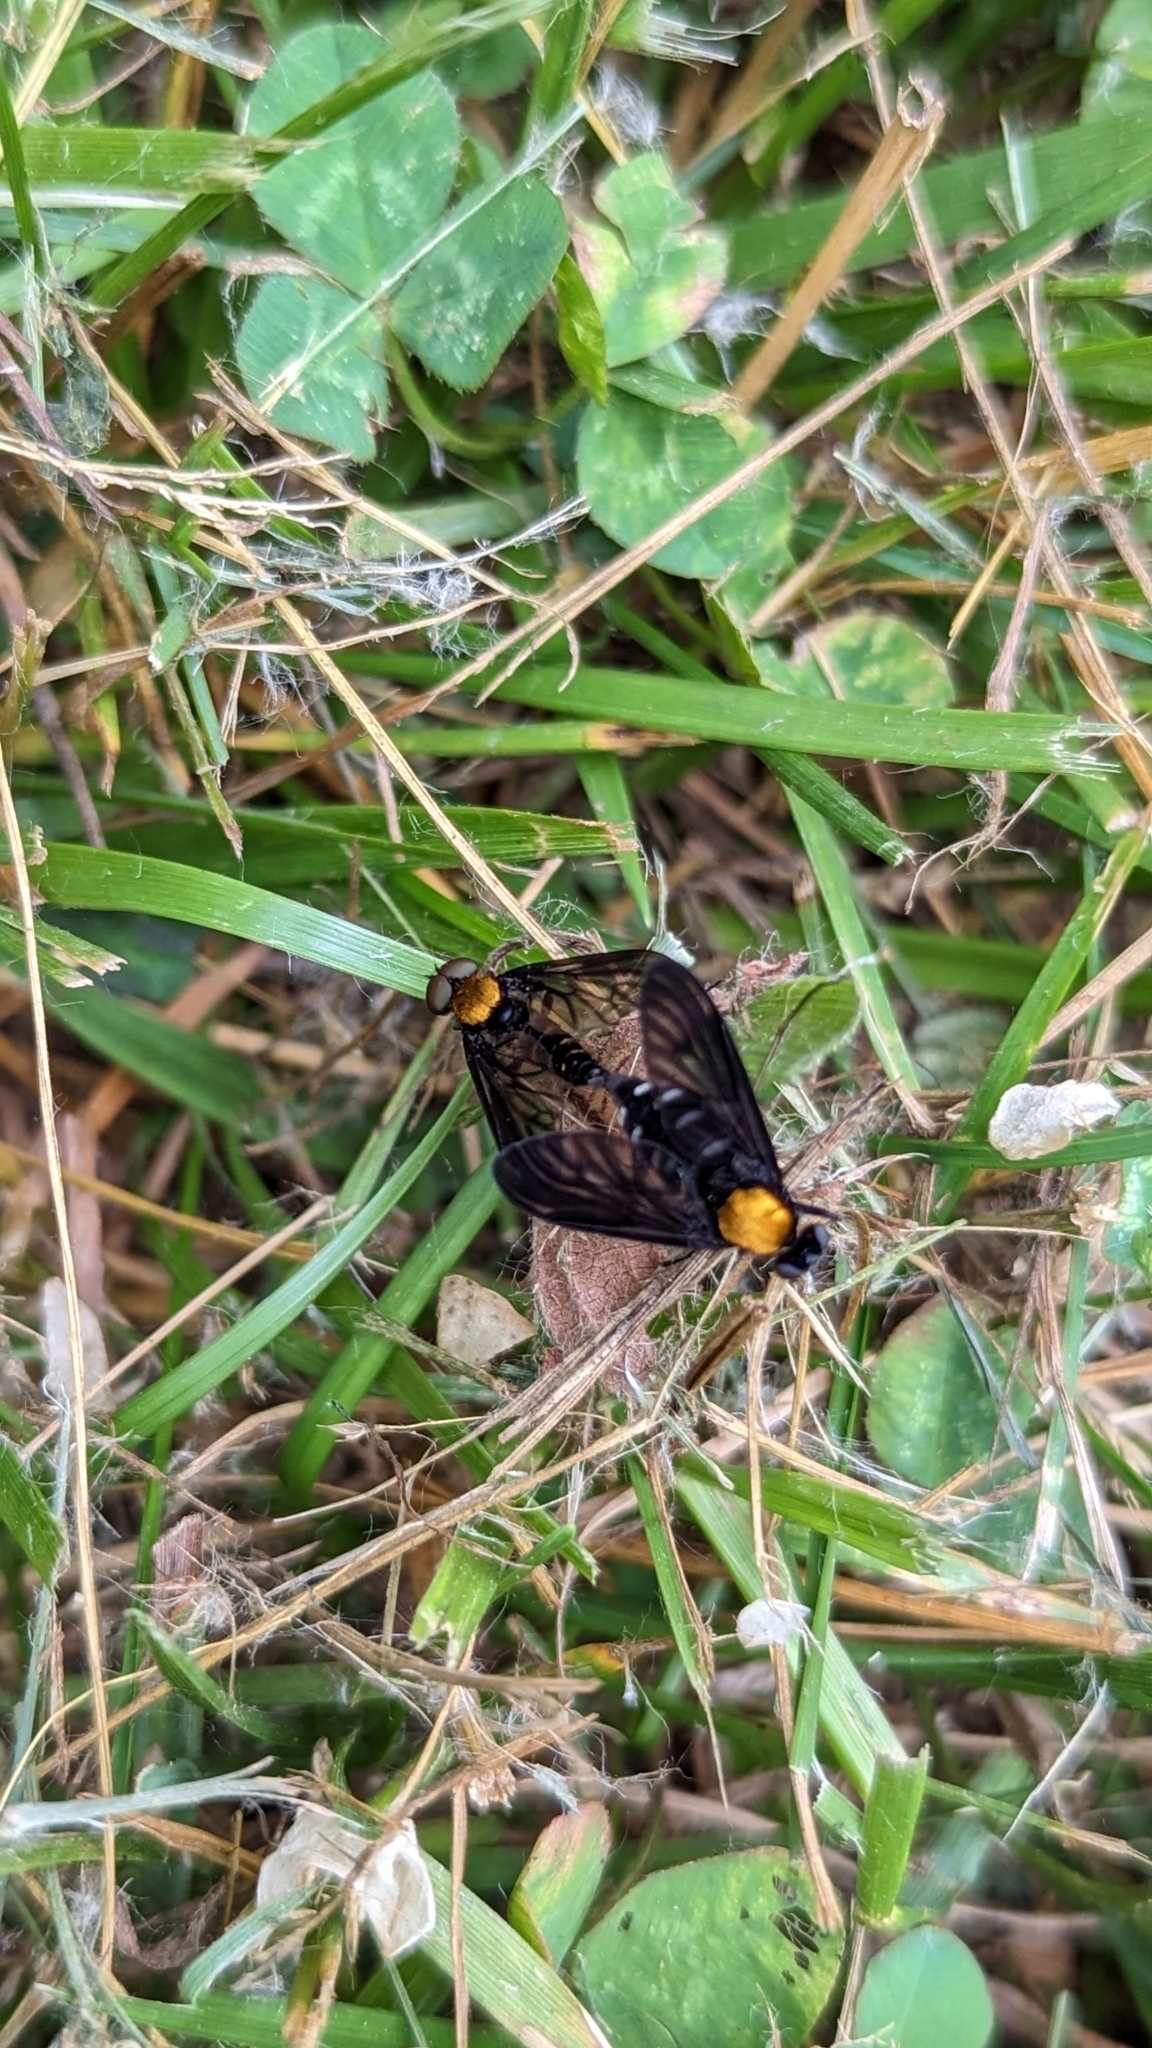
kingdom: Animalia
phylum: Arthropoda
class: Insecta
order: Diptera
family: Rhagionidae
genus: Chrysopilus
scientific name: Chrysopilus thoracicus
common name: Golden-backed snipe fly
